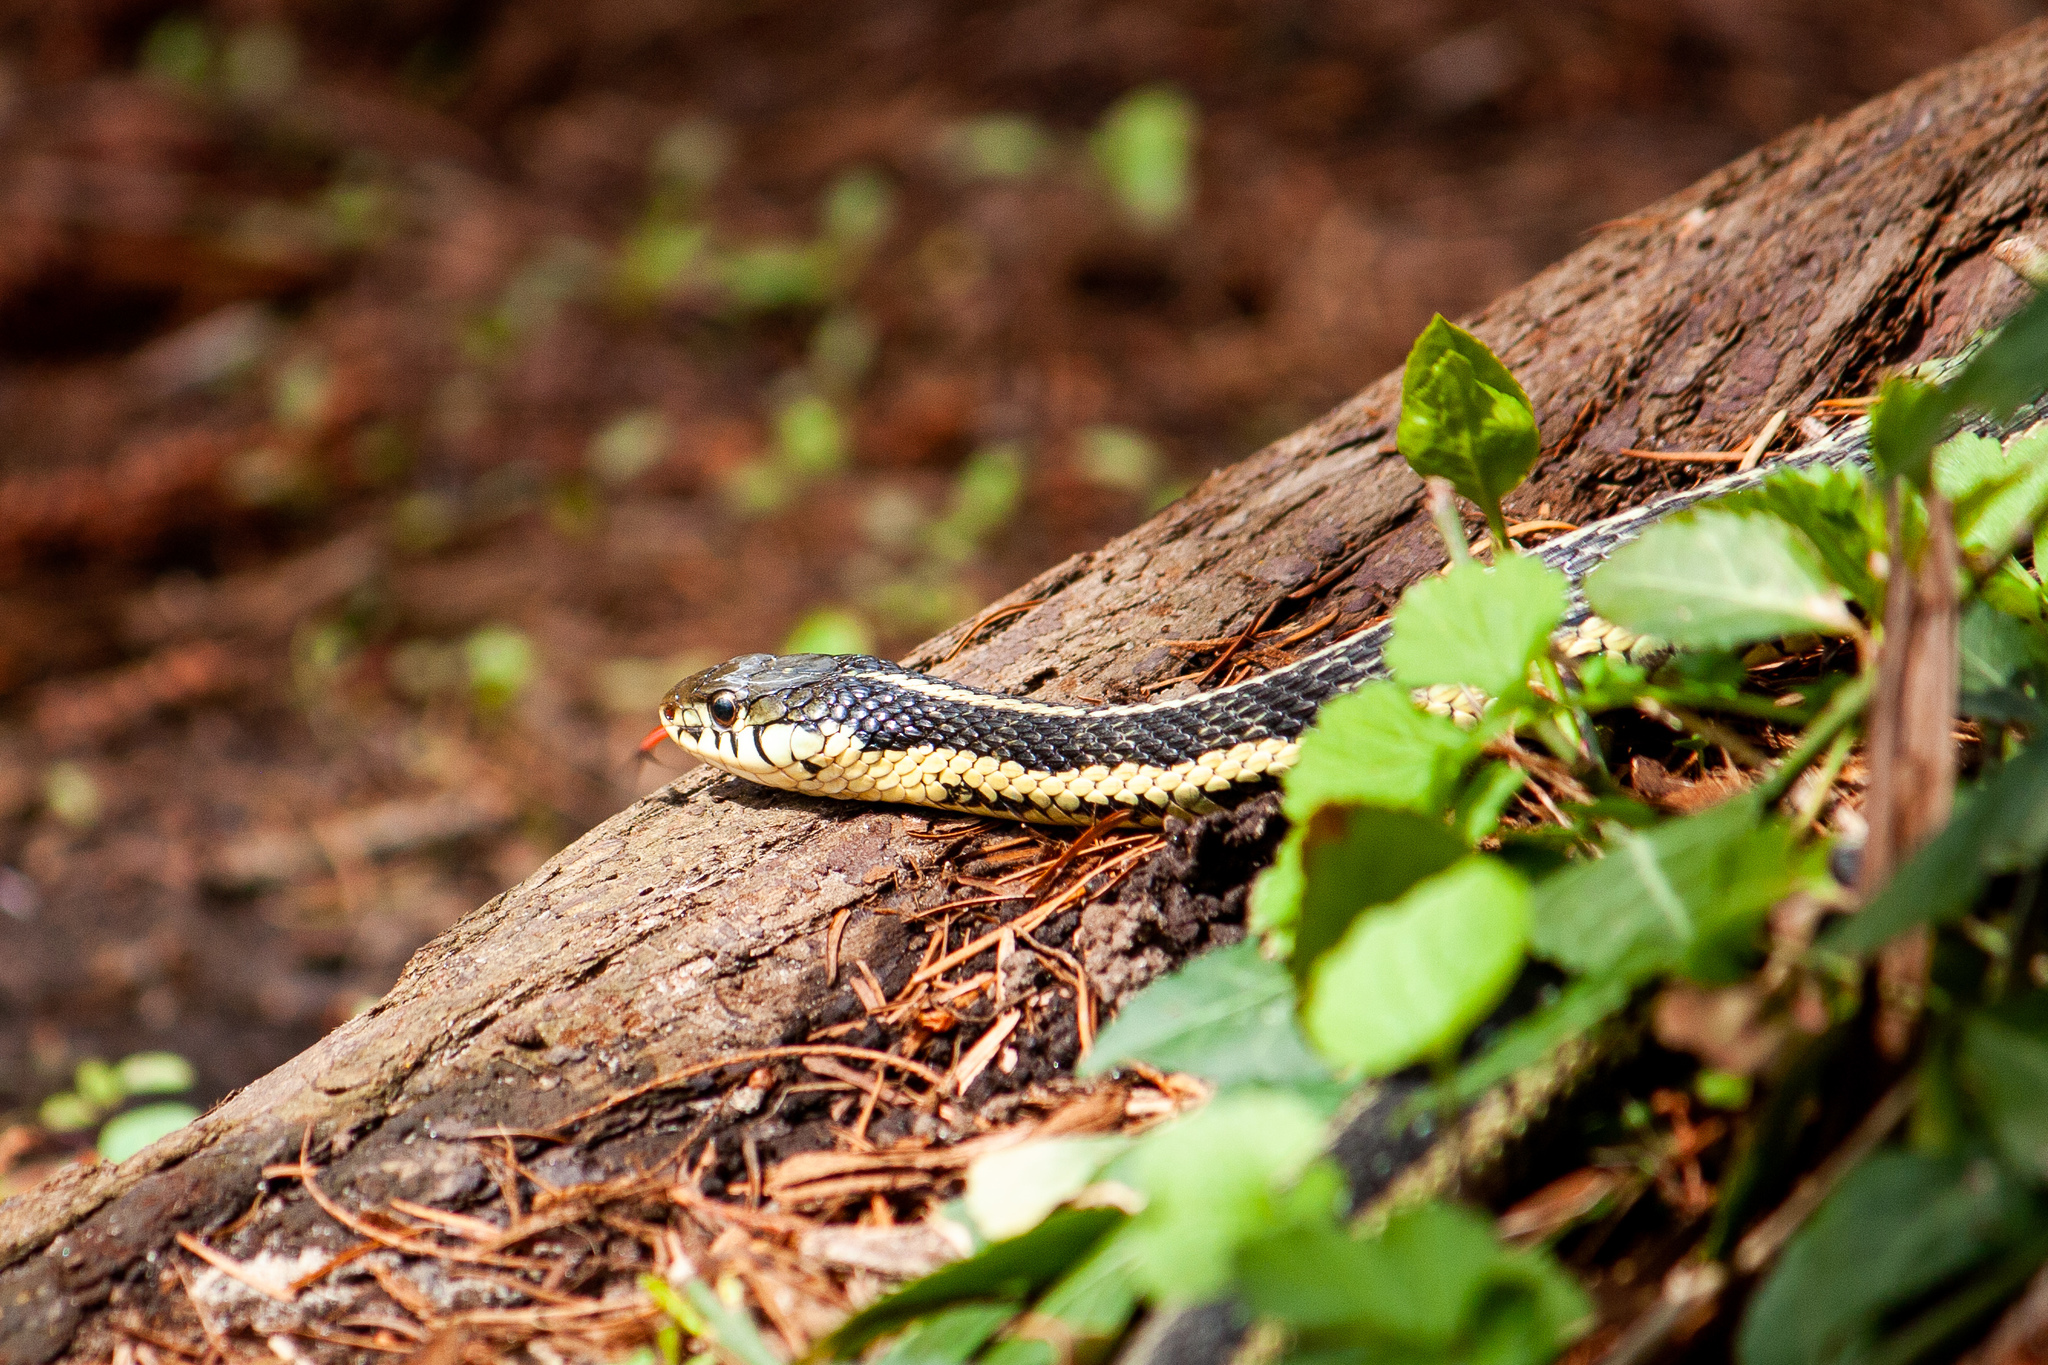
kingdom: Animalia
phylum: Chordata
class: Squamata
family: Colubridae
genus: Thamnophis
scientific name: Thamnophis sirtalis
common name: Common garter snake
